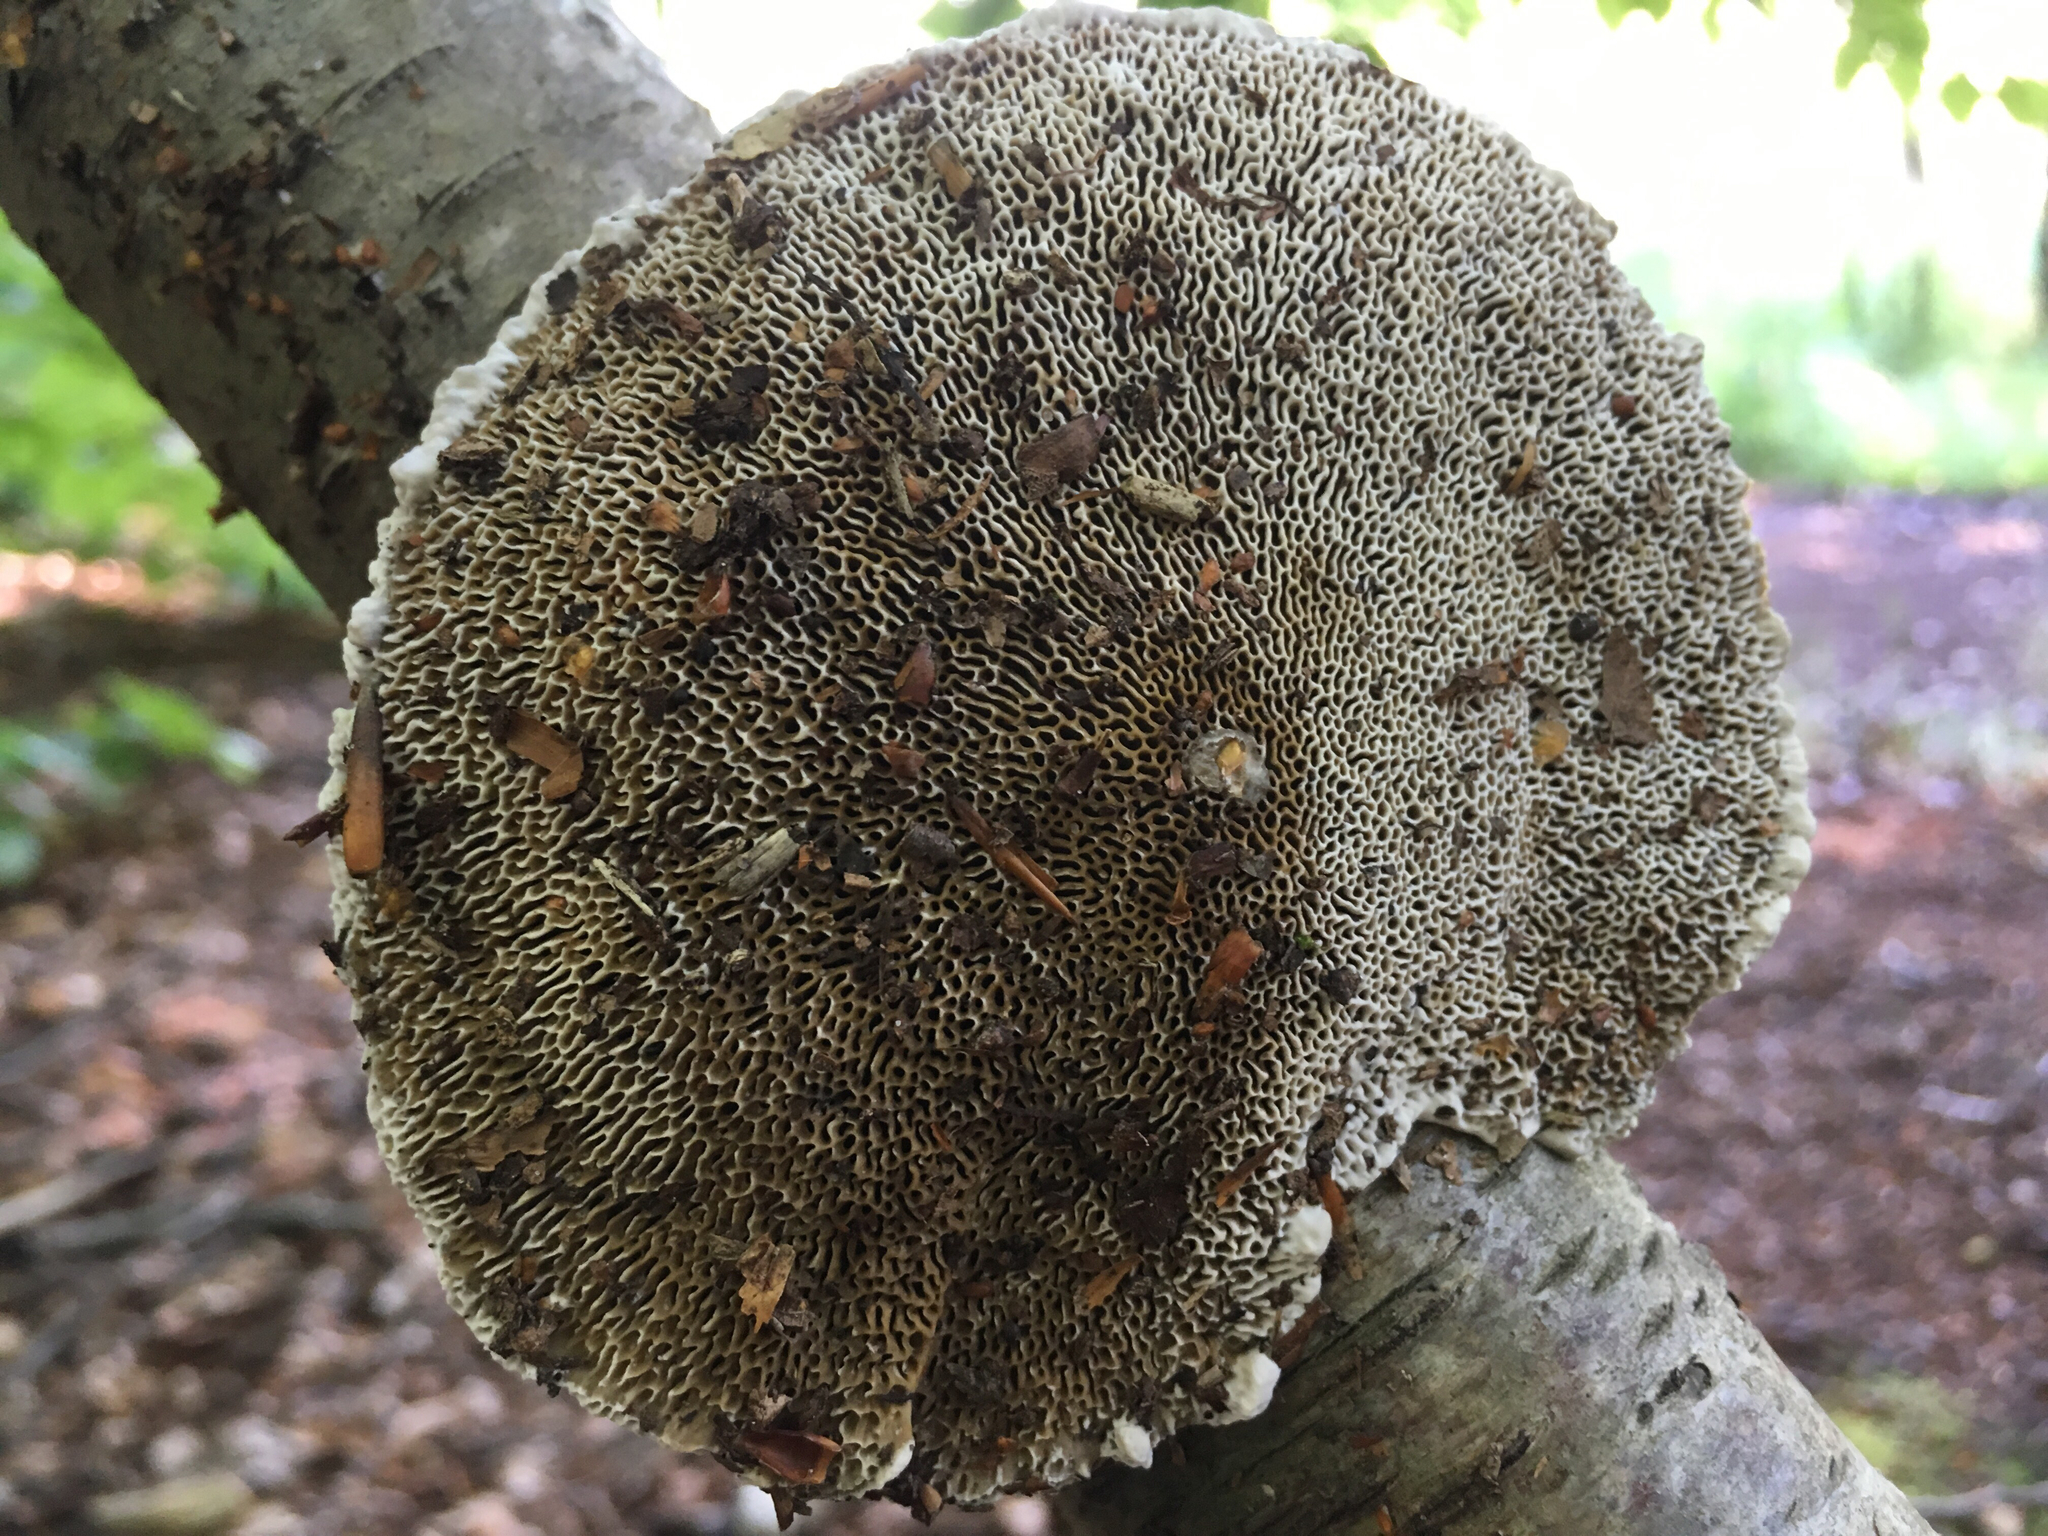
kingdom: Fungi
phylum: Basidiomycota
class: Agaricomycetes
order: Polyporales
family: Polyporaceae
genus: Daedaleopsis
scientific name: Daedaleopsis confragosa
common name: Blushing bracket
